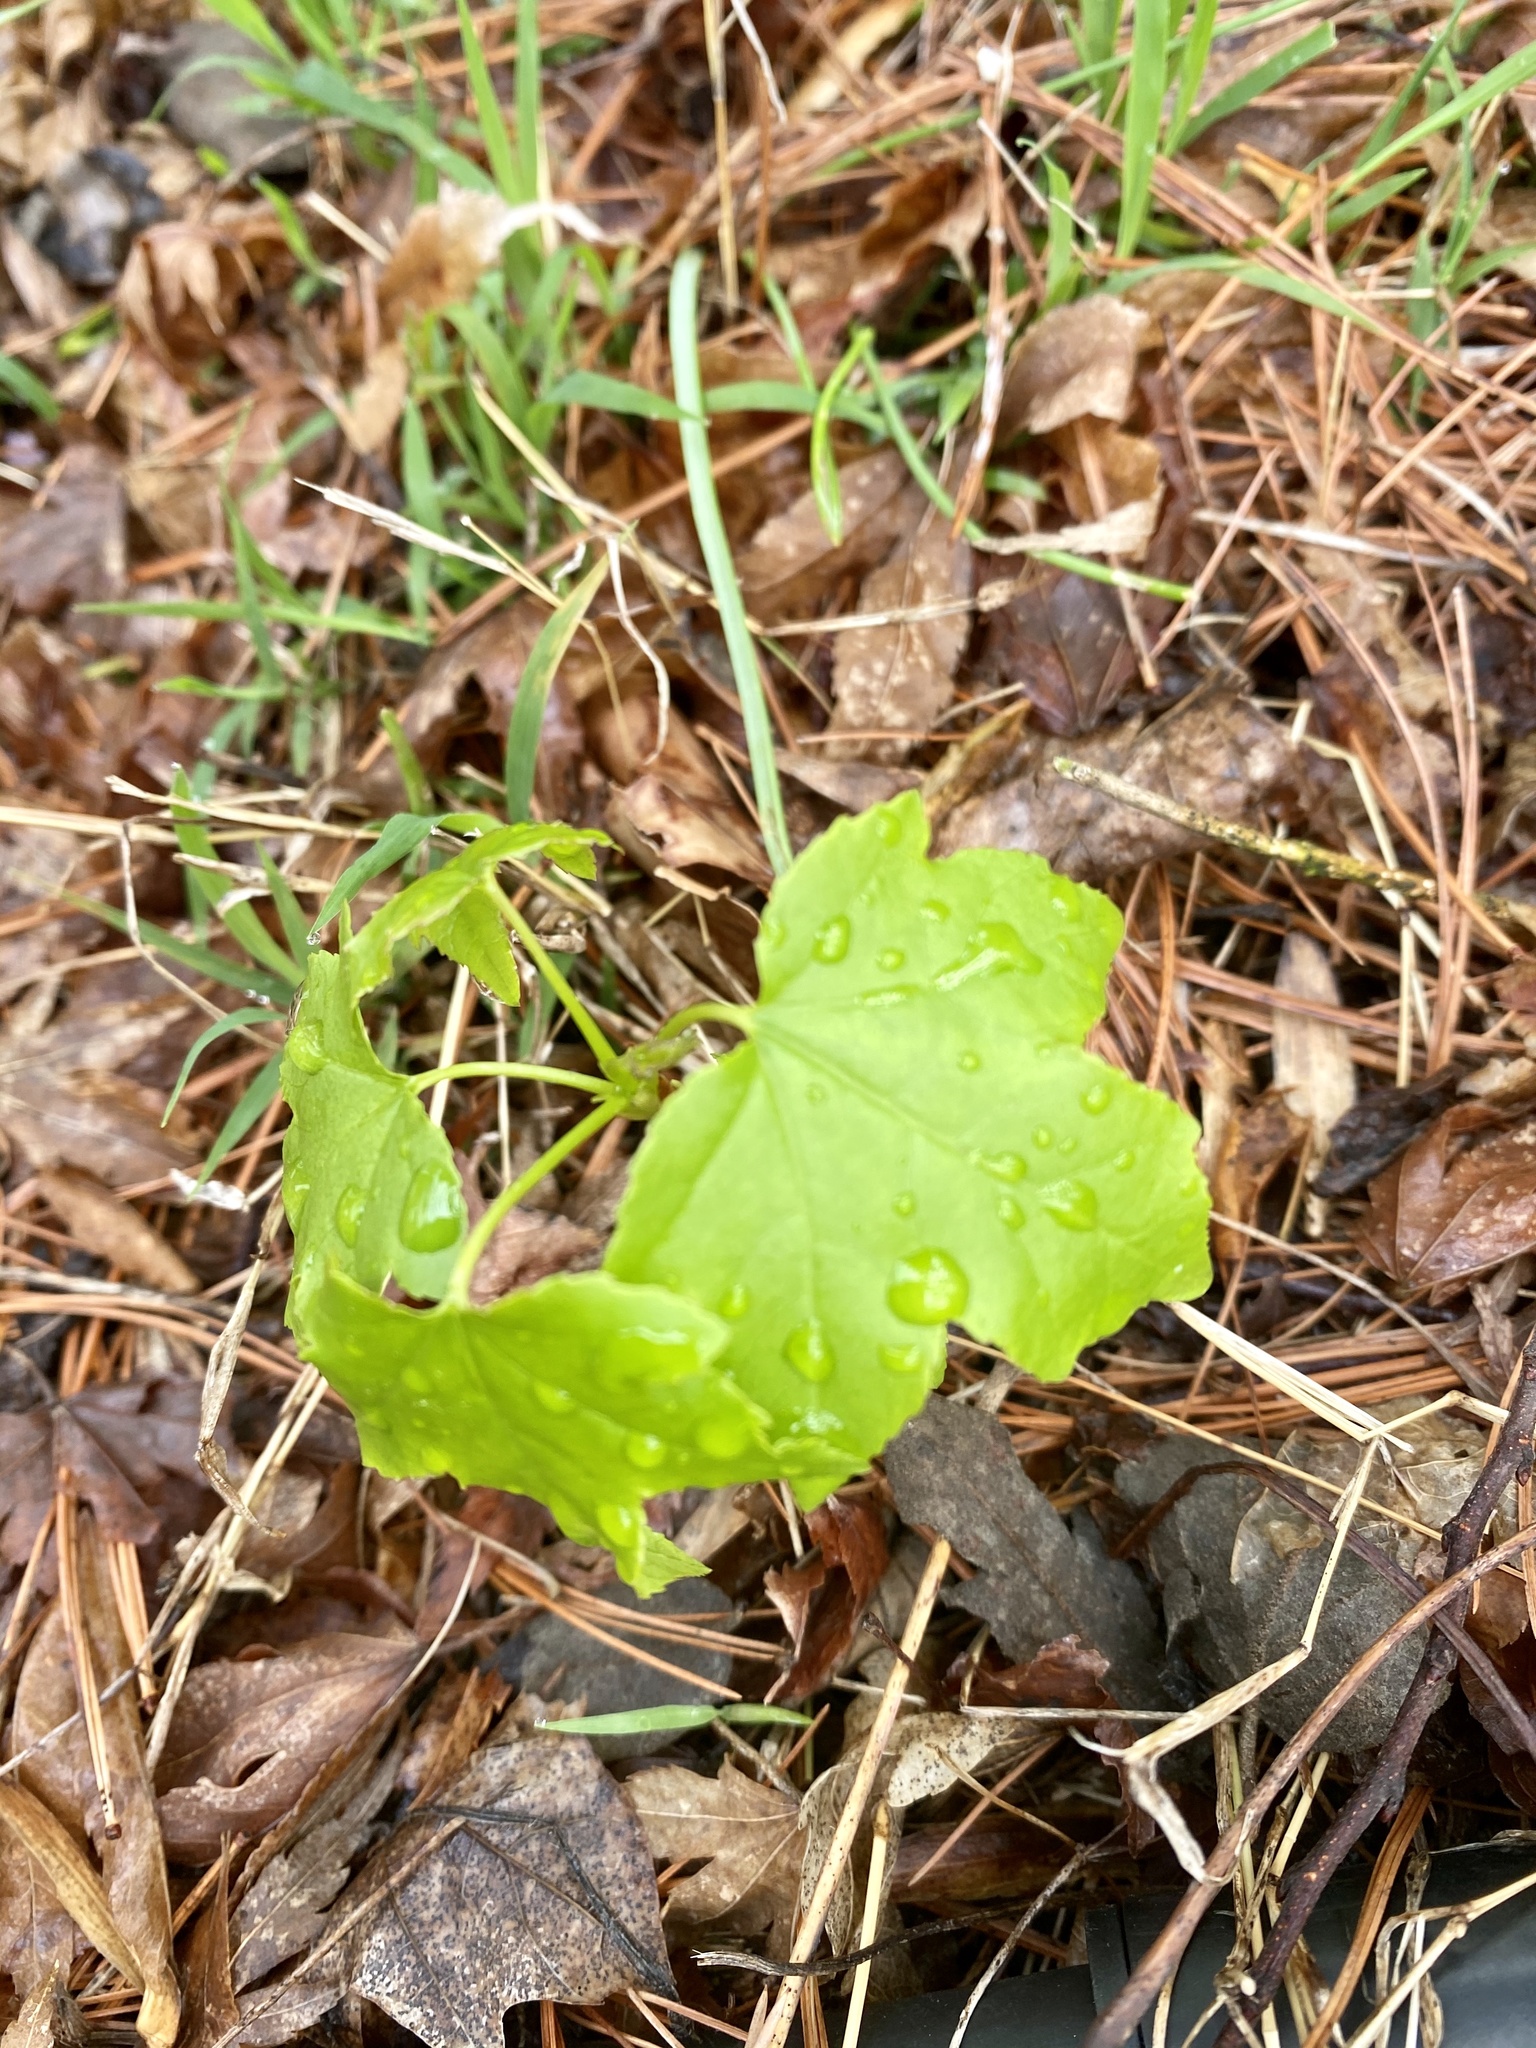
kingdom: Plantae
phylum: Tracheophyta
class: Magnoliopsida
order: Saxifragales
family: Altingiaceae
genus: Liquidambar
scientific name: Liquidambar styraciflua
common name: Sweet gum
